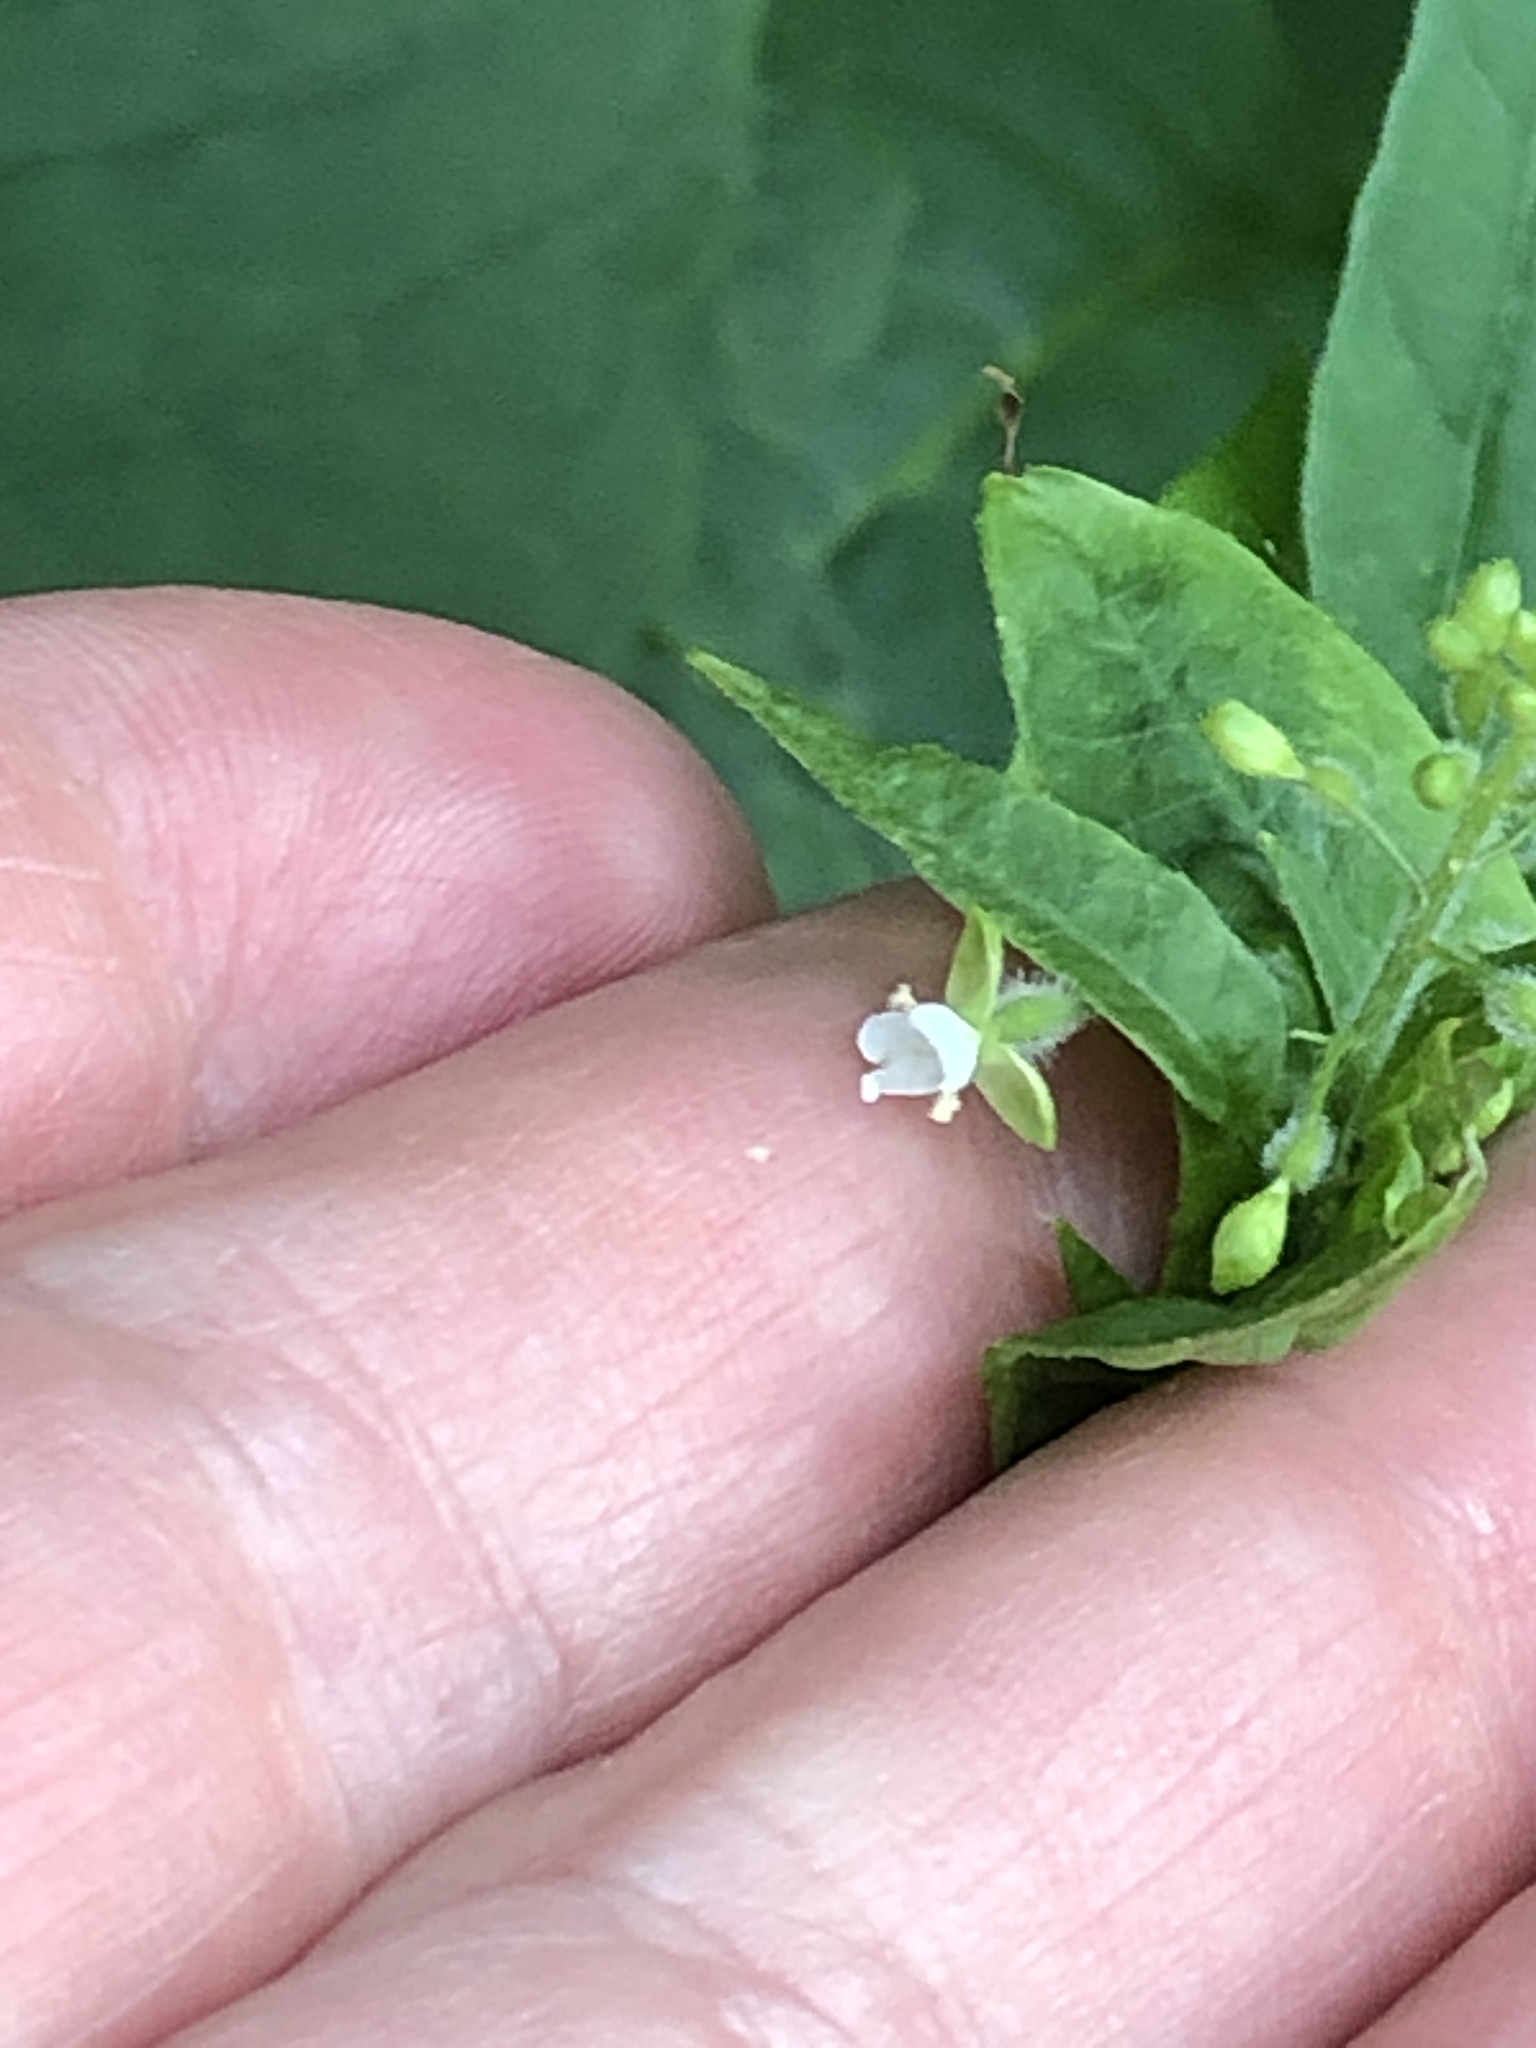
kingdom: Plantae
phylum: Tracheophyta
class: Magnoliopsida
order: Myrtales
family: Onagraceae
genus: Circaea
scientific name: Circaea canadensis
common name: Broad-leaved enchanter's nightshade
